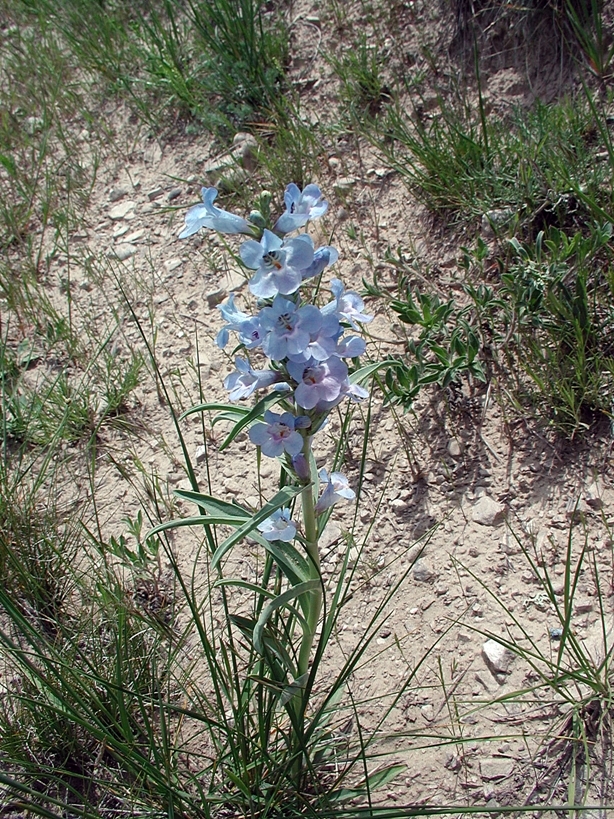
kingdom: Plantae
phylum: Tracheophyta
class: Magnoliopsida
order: Lamiales
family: Plantaginaceae
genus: Penstemon
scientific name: Penstemon angustifolius
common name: Narrow beardtongue
